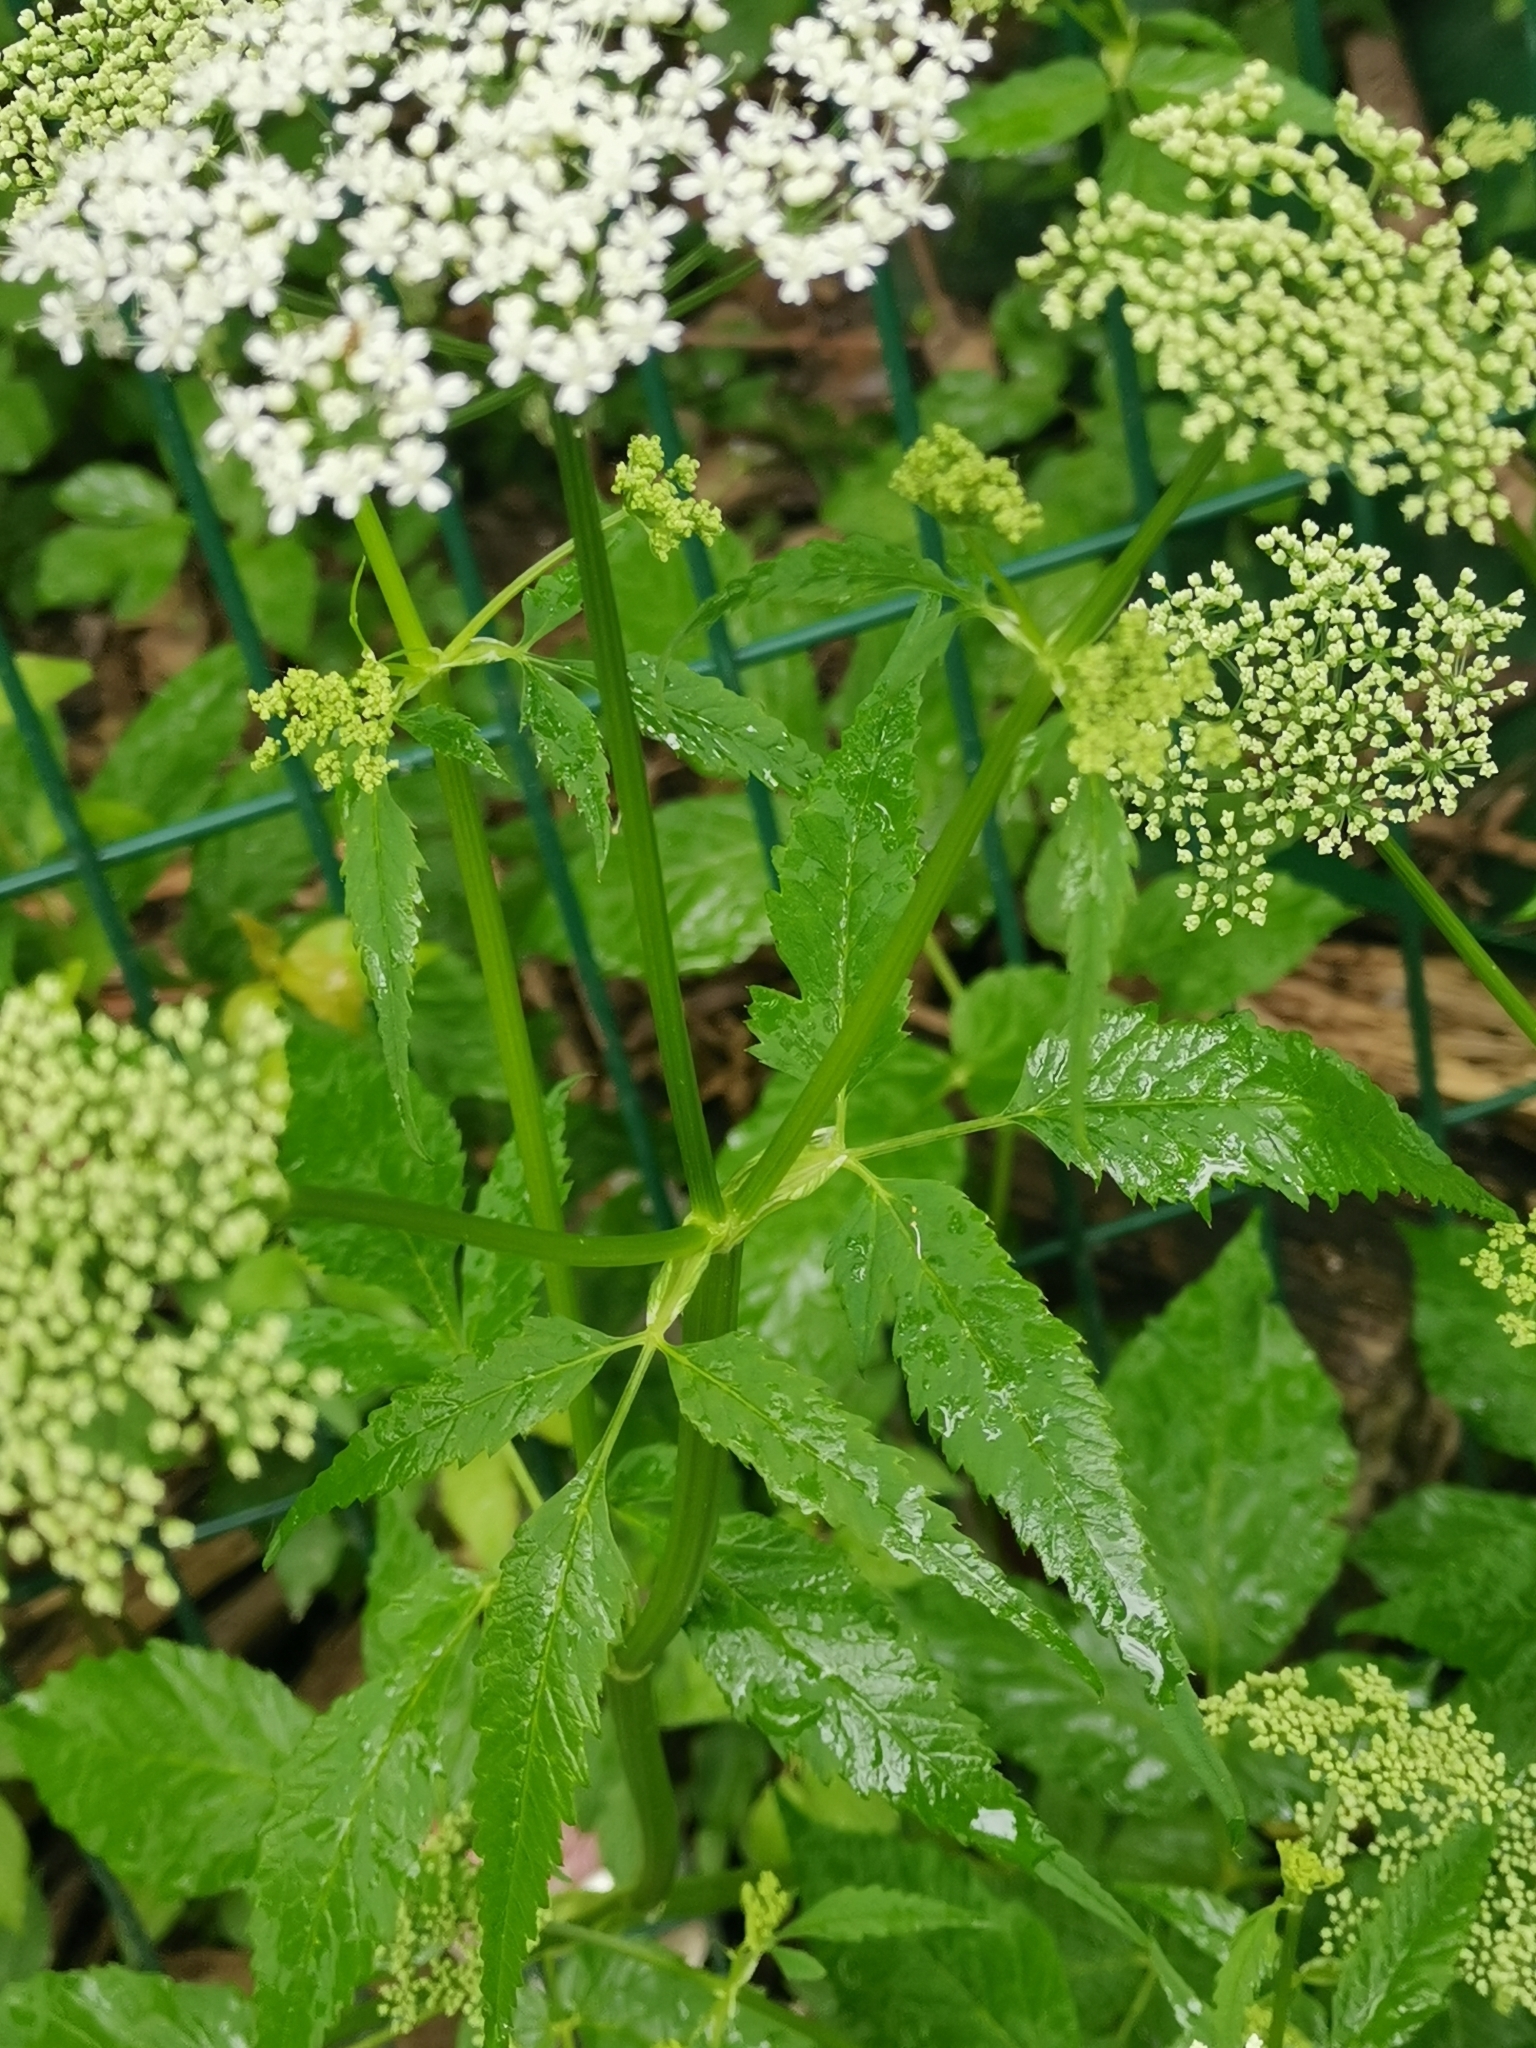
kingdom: Plantae
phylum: Tracheophyta
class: Magnoliopsida
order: Apiales
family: Apiaceae
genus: Aegopodium
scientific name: Aegopodium podagraria
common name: Ground-elder
